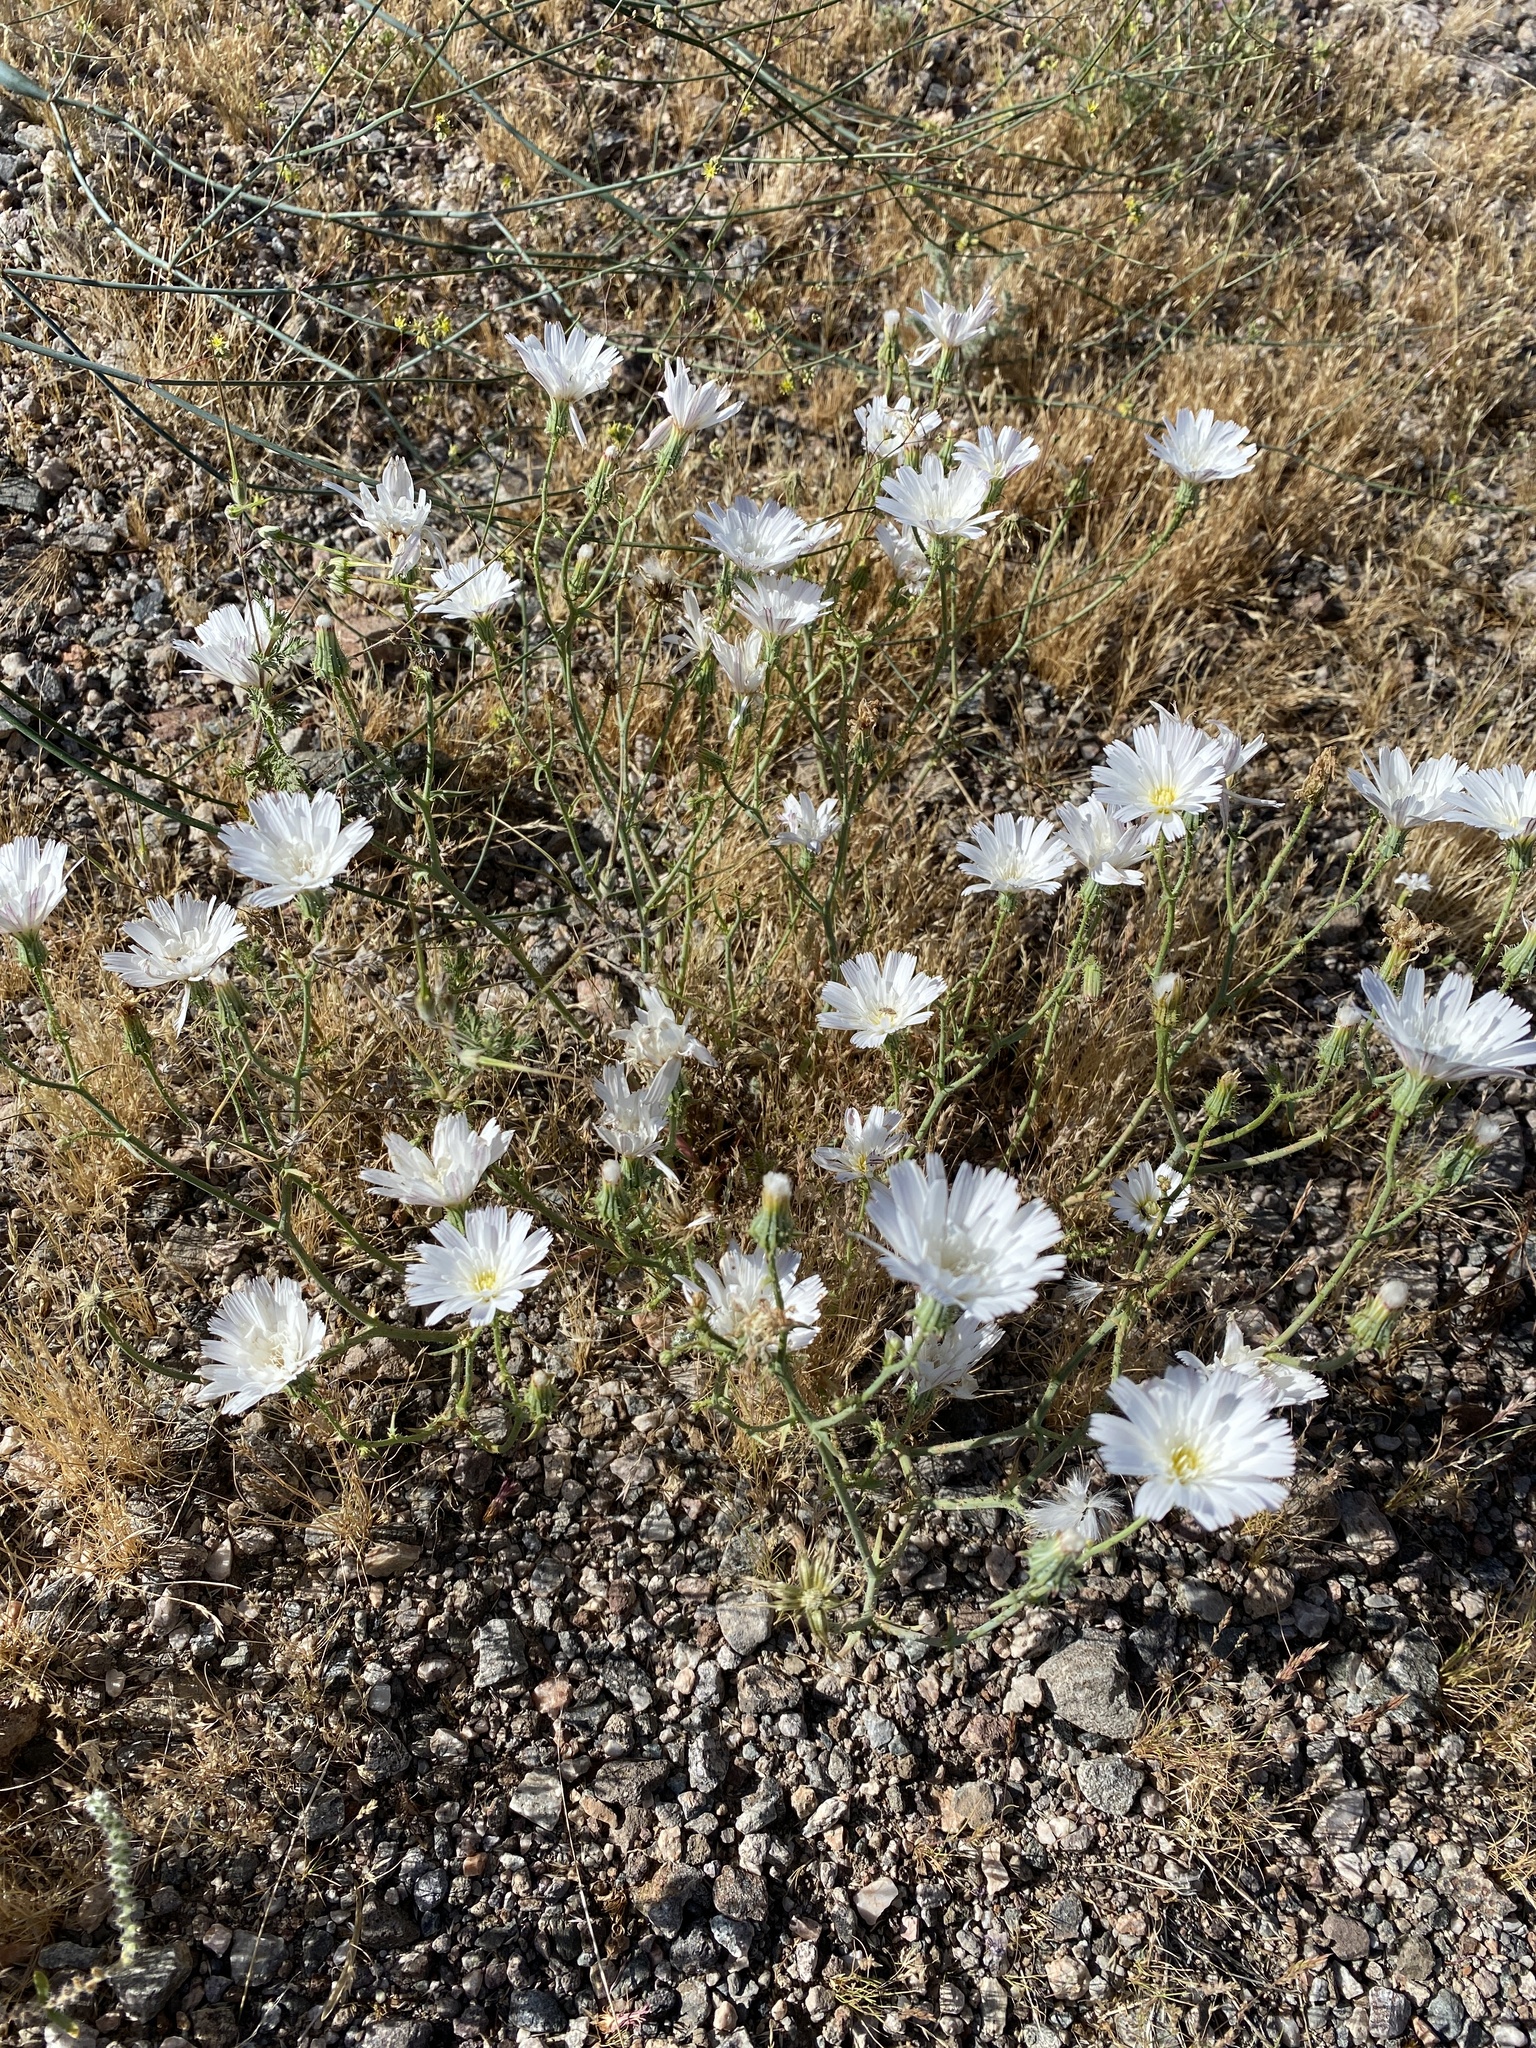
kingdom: Plantae
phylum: Tracheophyta
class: Magnoliopsida
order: Asterales
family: Asteraceae
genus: Calycoseris
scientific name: Calycoseris wrightii
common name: White tackstem
